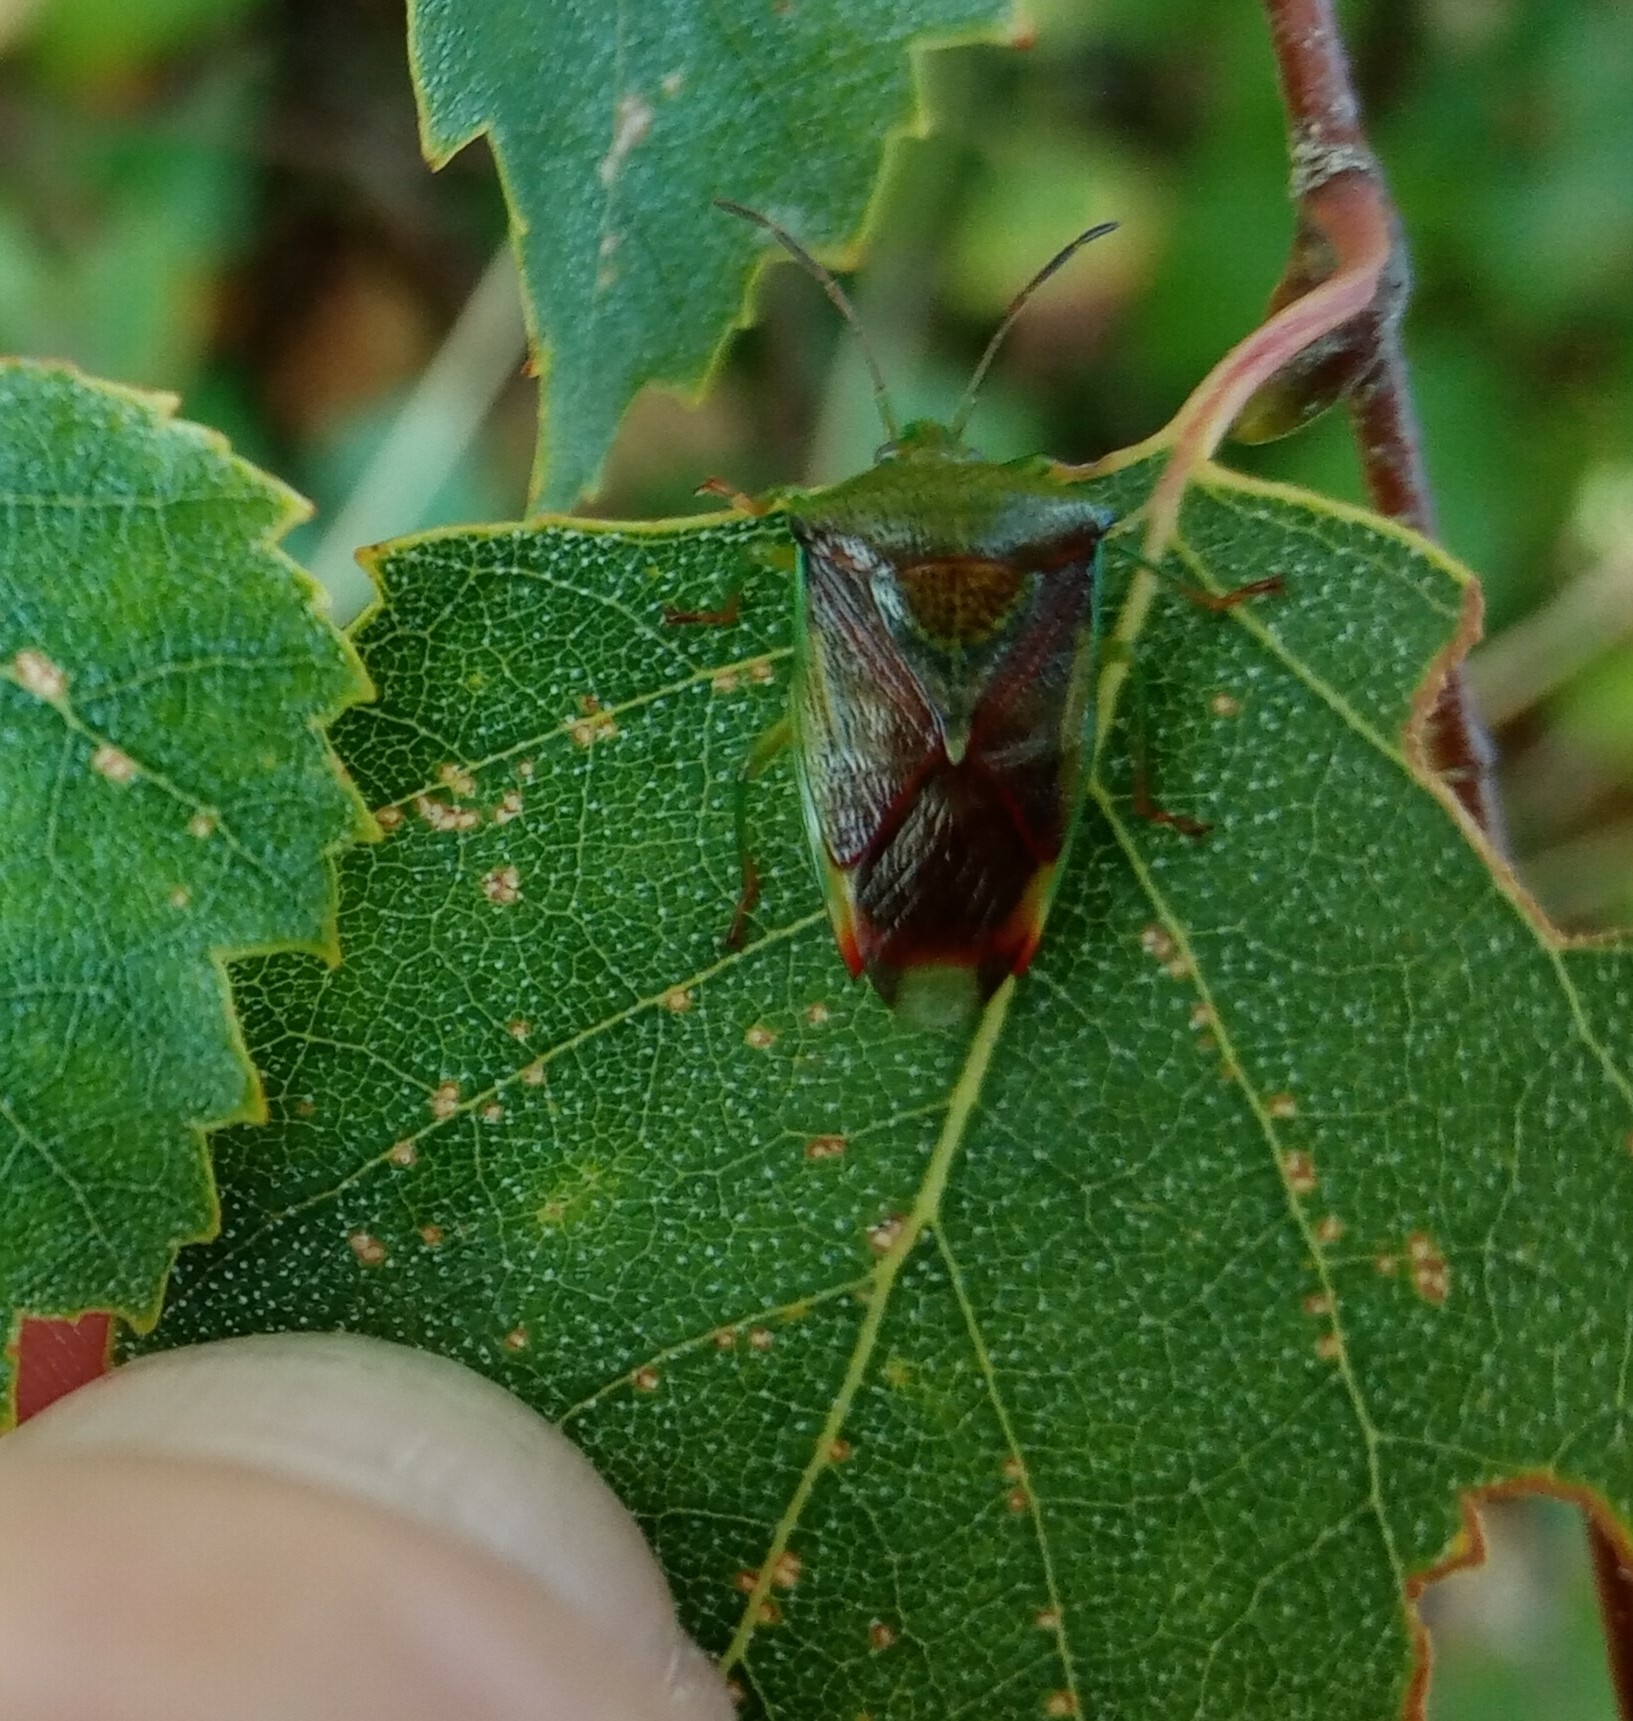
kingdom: Animalia
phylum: Arthropoda
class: Insecta
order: Hemiptera
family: Acanthosomatidae
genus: Elasmostethus
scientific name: Elasmostethus interstinctus
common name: Birch shieldbug
